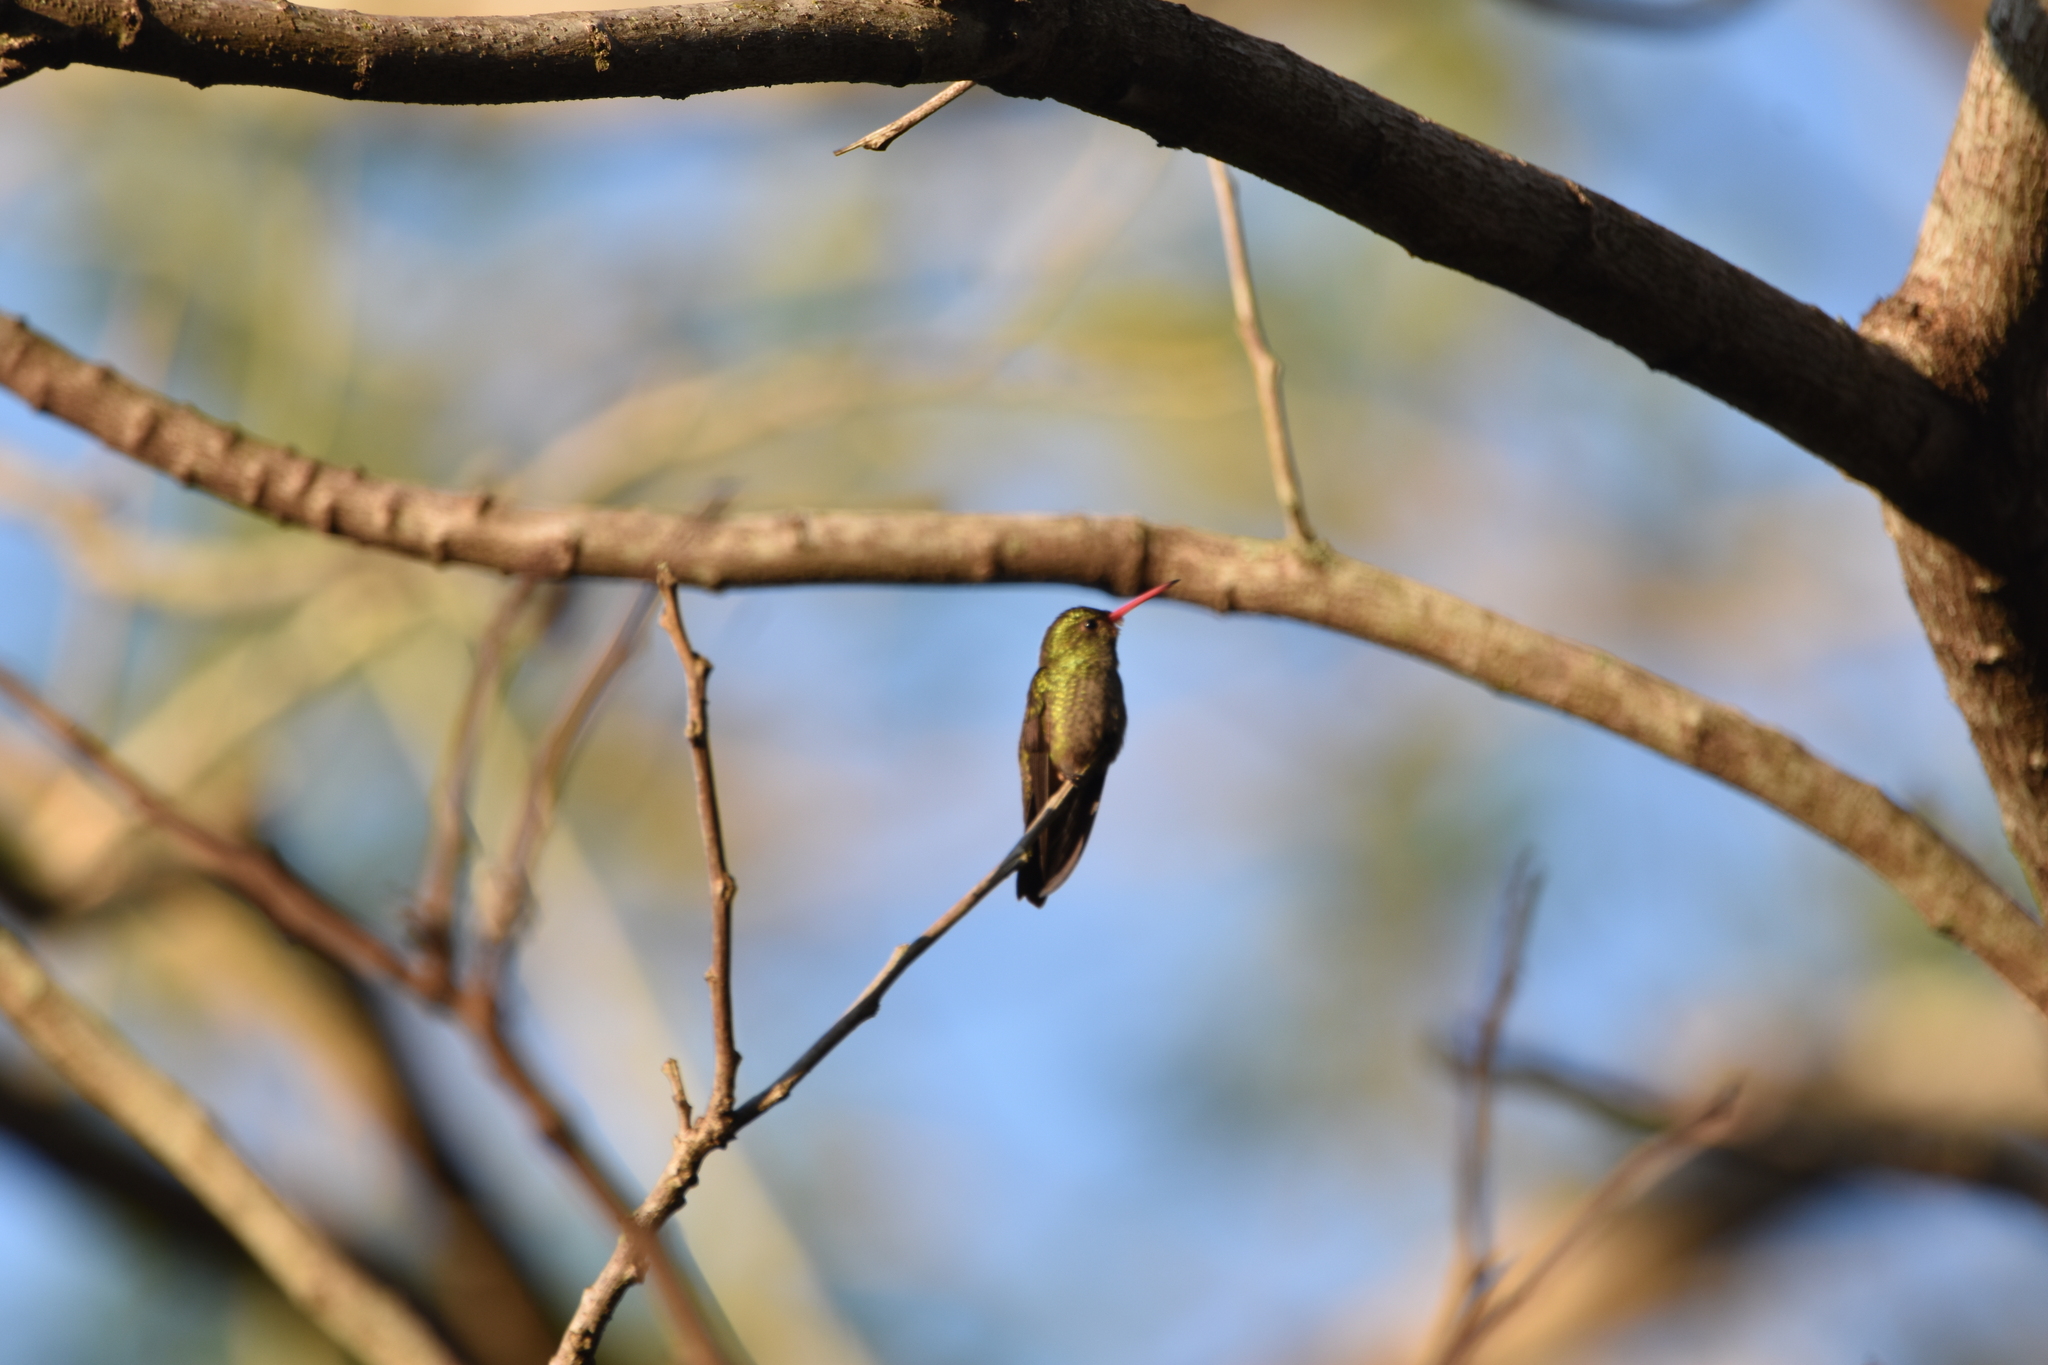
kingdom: Animalia
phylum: Chordata
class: Aves
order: Apodiformes
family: Trochilidae
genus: Hylocharis
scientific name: Hylocharis chrysura
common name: Gilded sapphire
